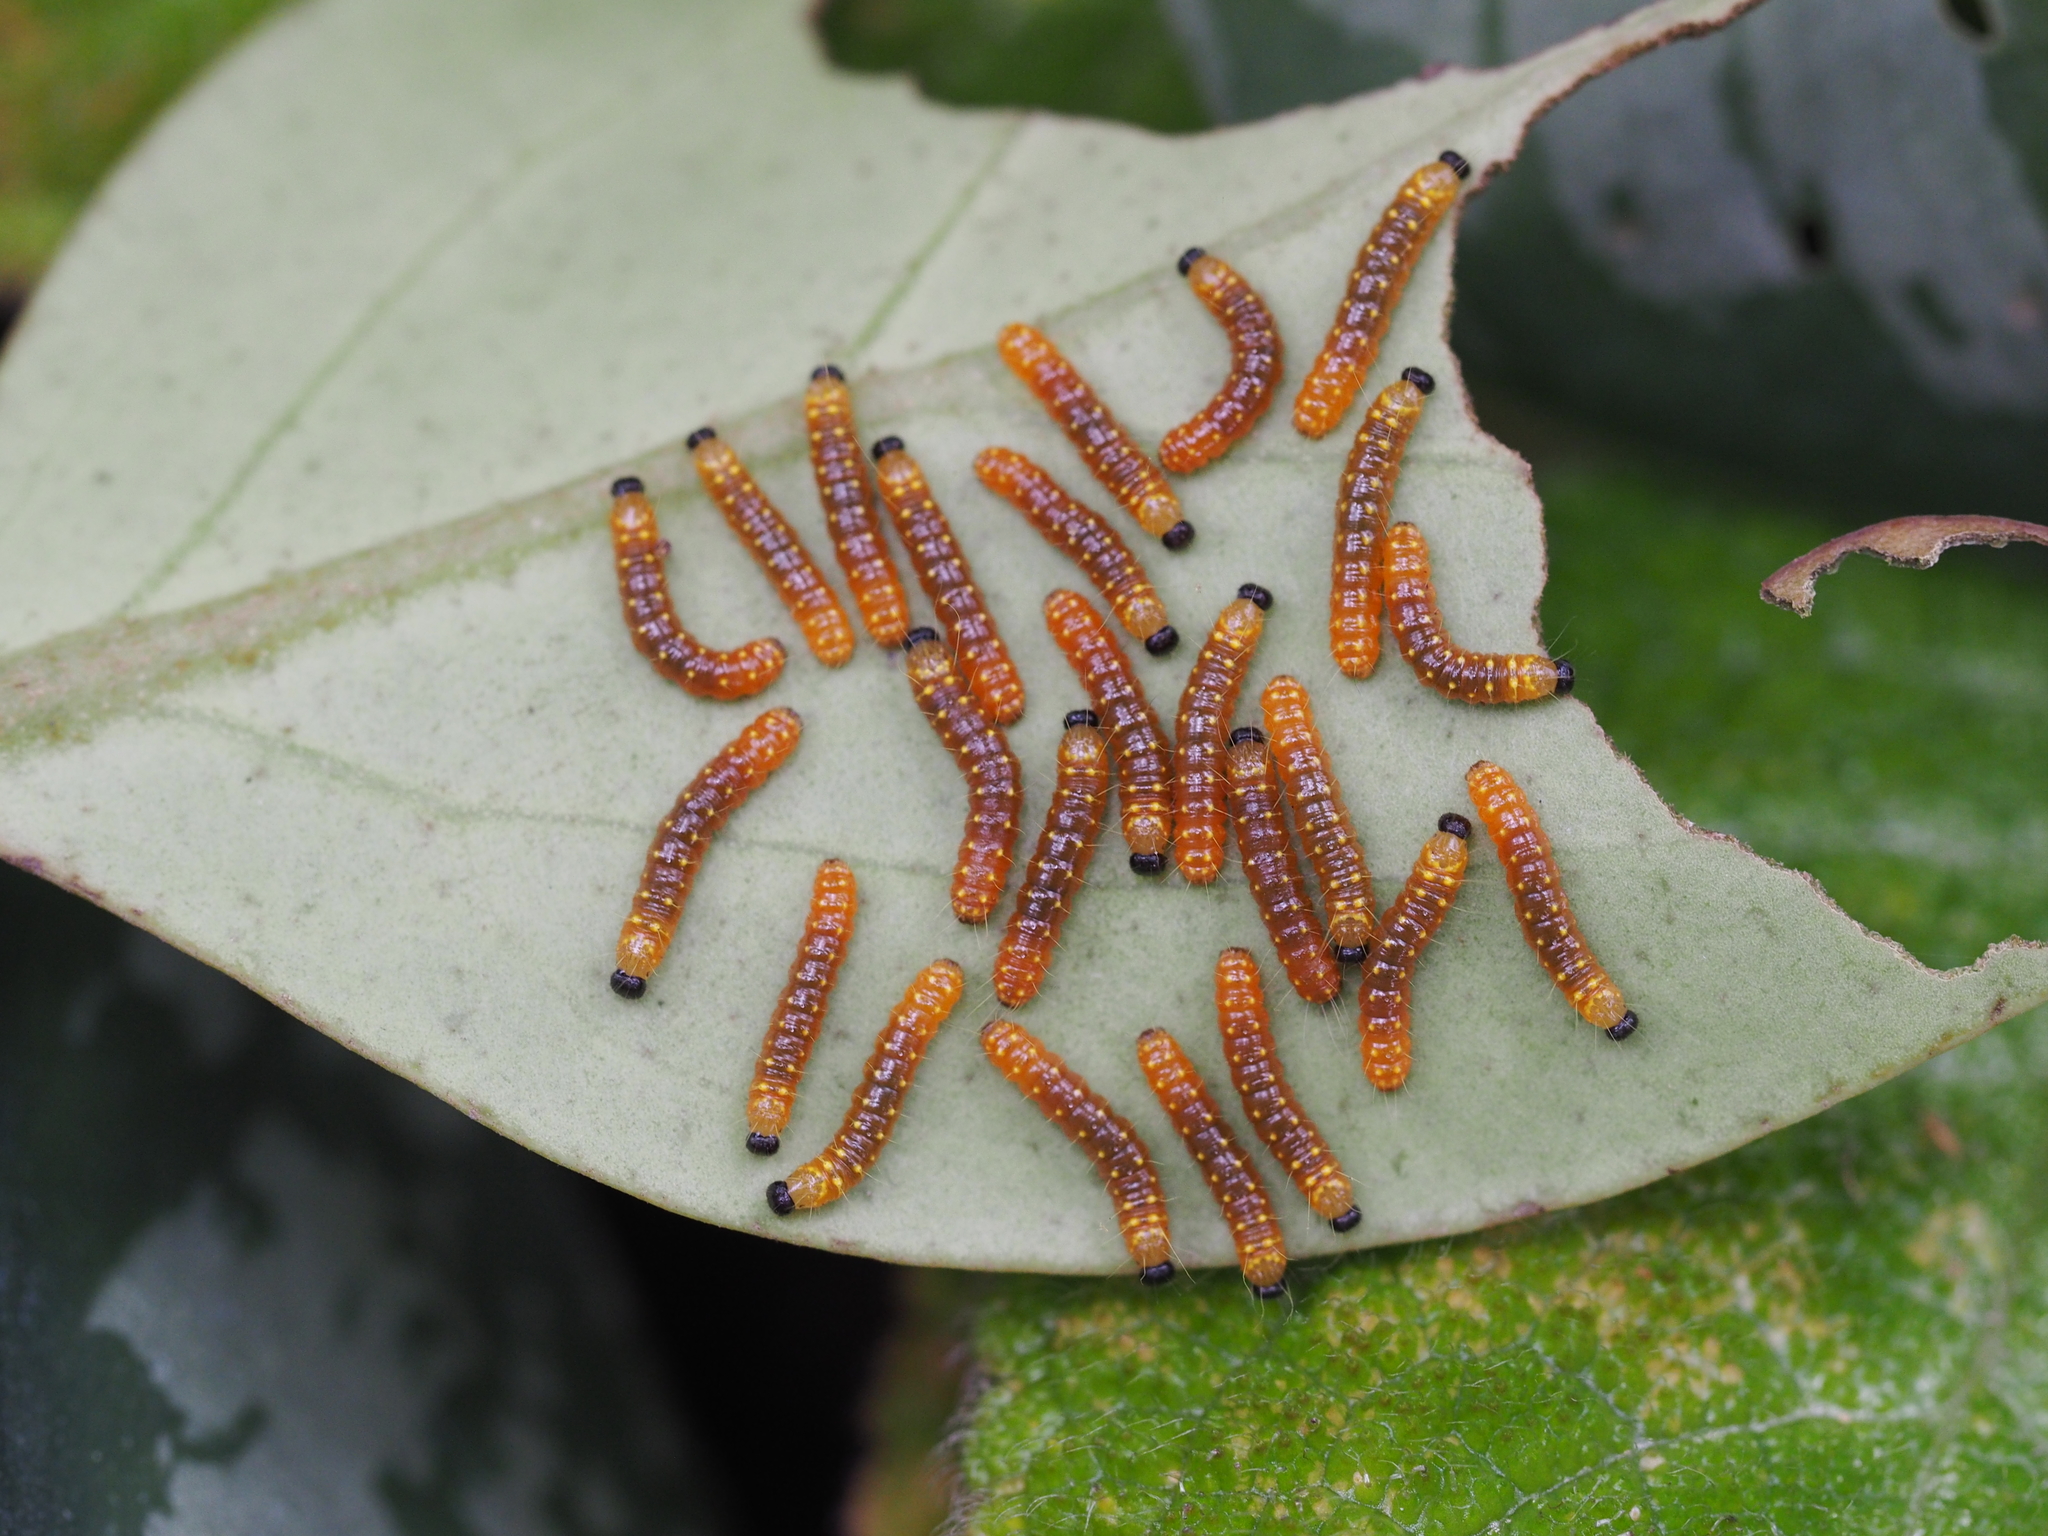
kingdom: Animalia
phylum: Arthropoda
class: Insecta
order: Lepidoptera
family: Pieridae
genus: Delias
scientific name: Delias hyparete
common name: Painted jezebel
